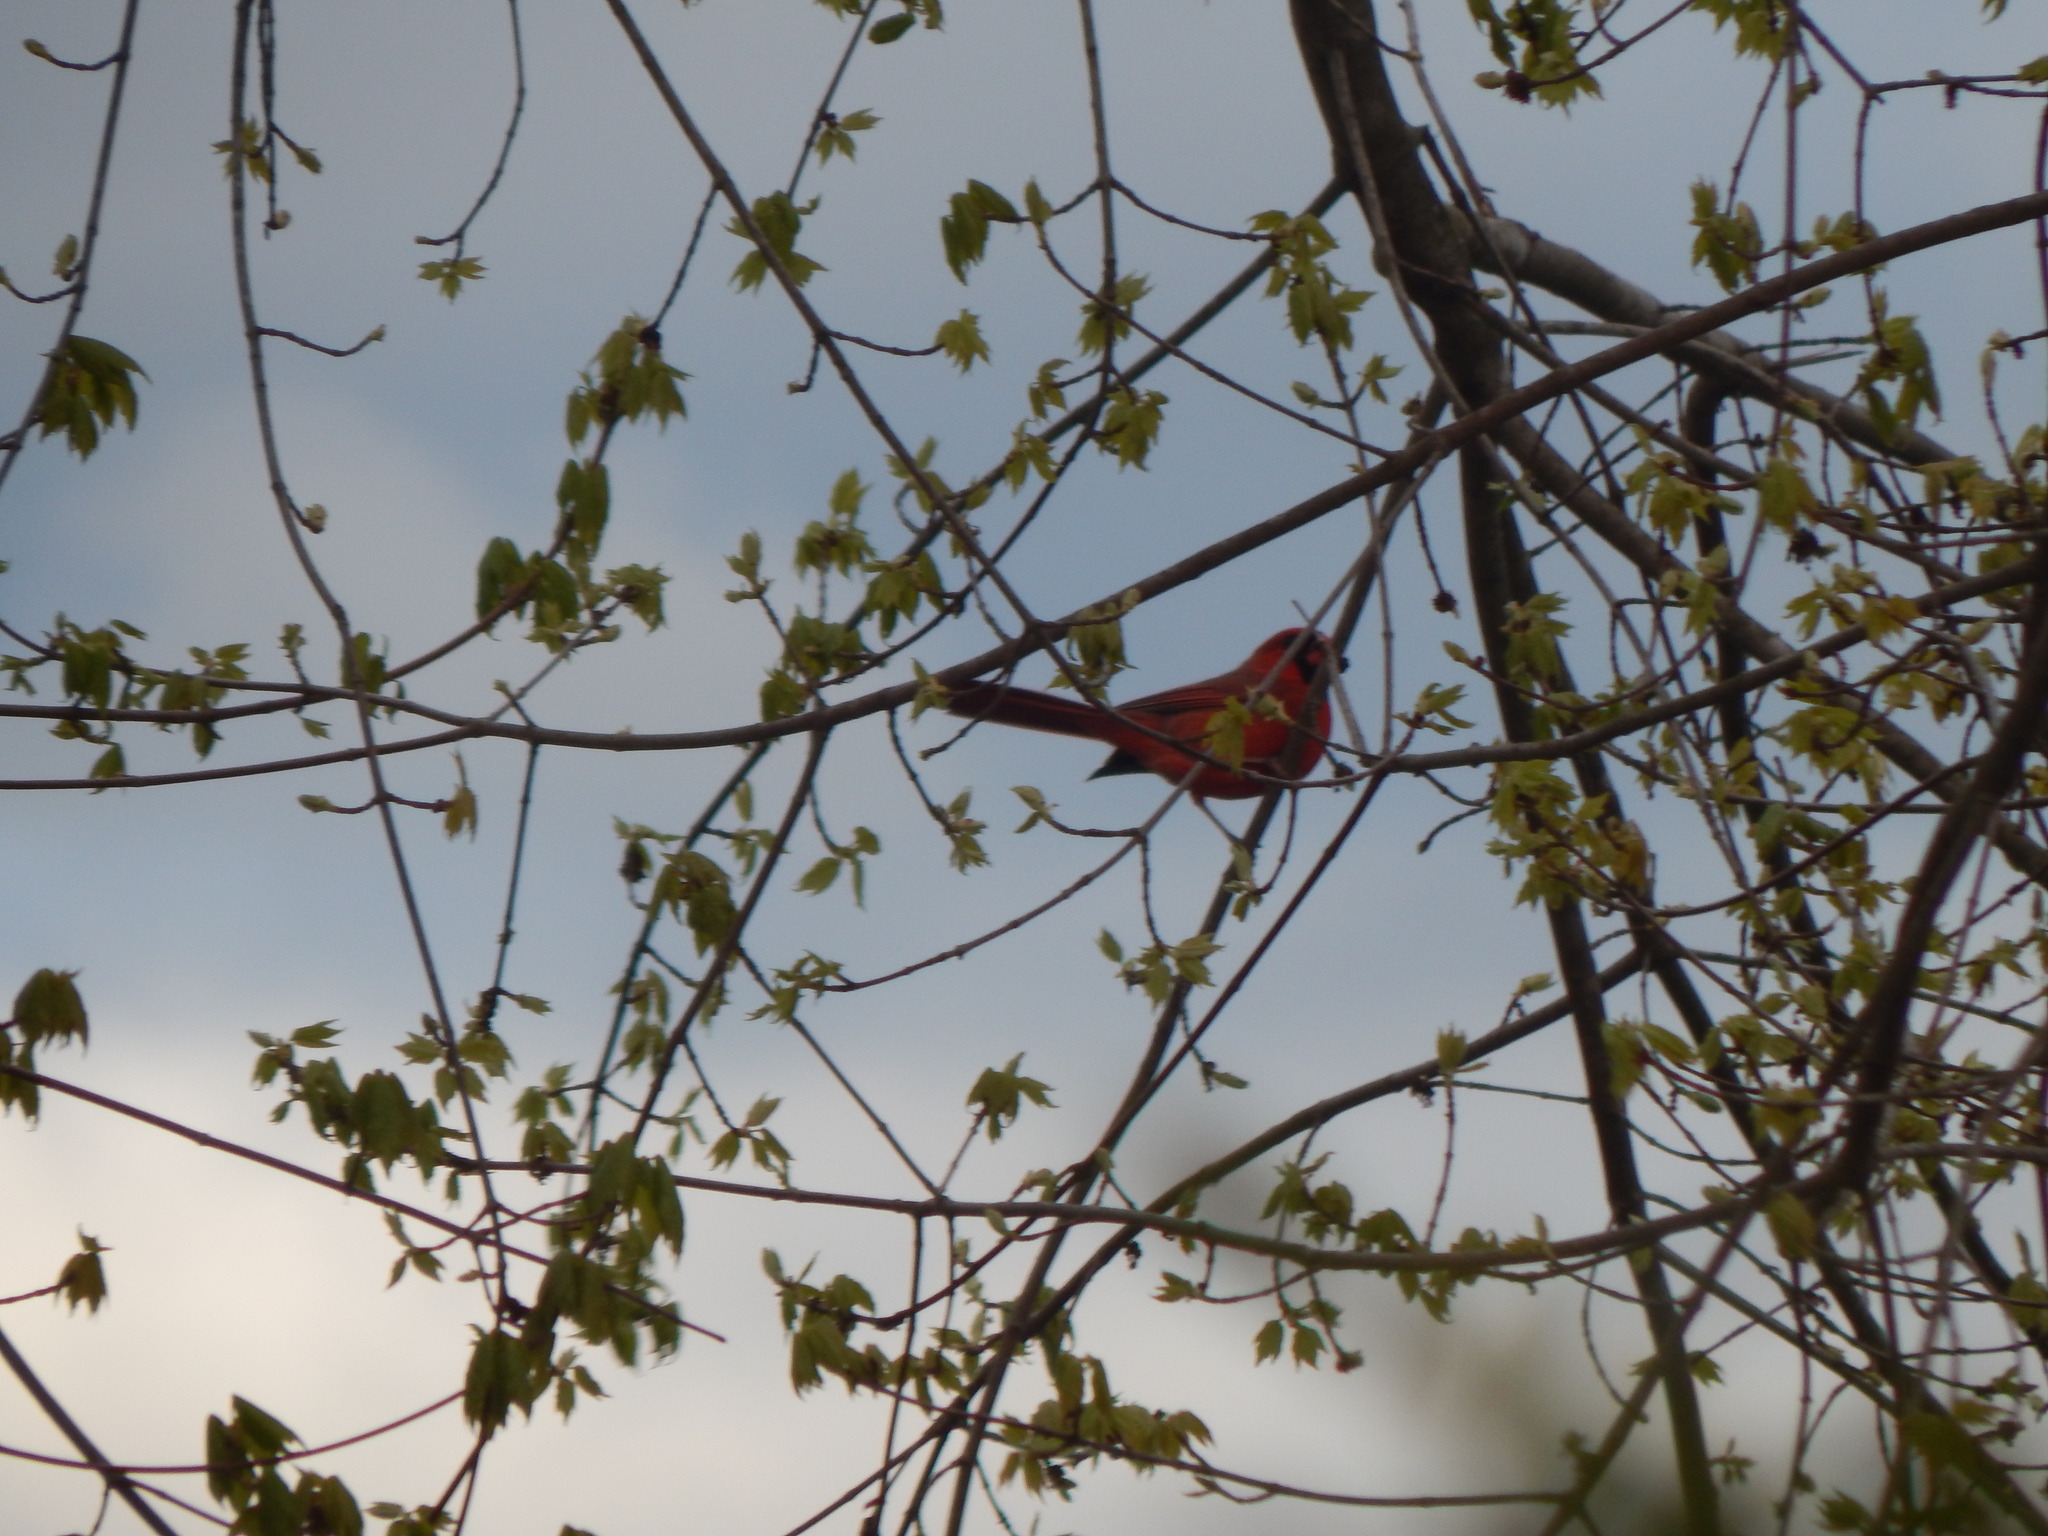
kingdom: Animalia
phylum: Chordata
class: Aves
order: Passeriformes
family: Cardinalidae
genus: Cardinalis
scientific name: Cardinalis cardinalis
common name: Northern cardinal
